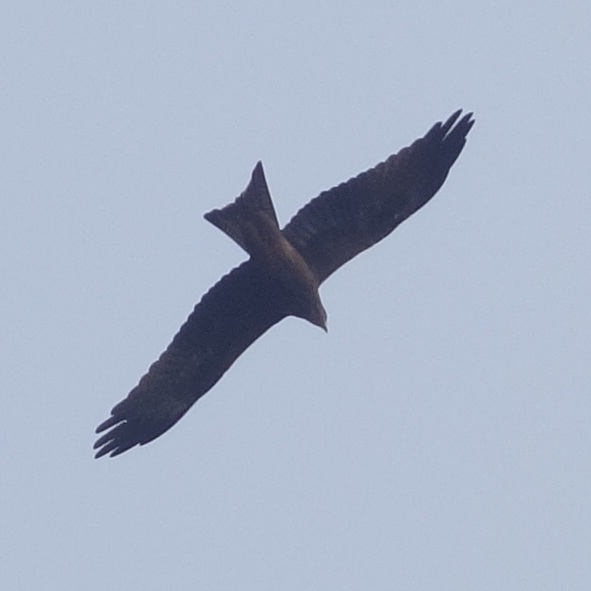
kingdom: Animalia
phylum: Chordata
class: Aves
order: Accipitriformes
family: Accipitridae
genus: Milvus
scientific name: Milvus migrans
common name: Black kite
